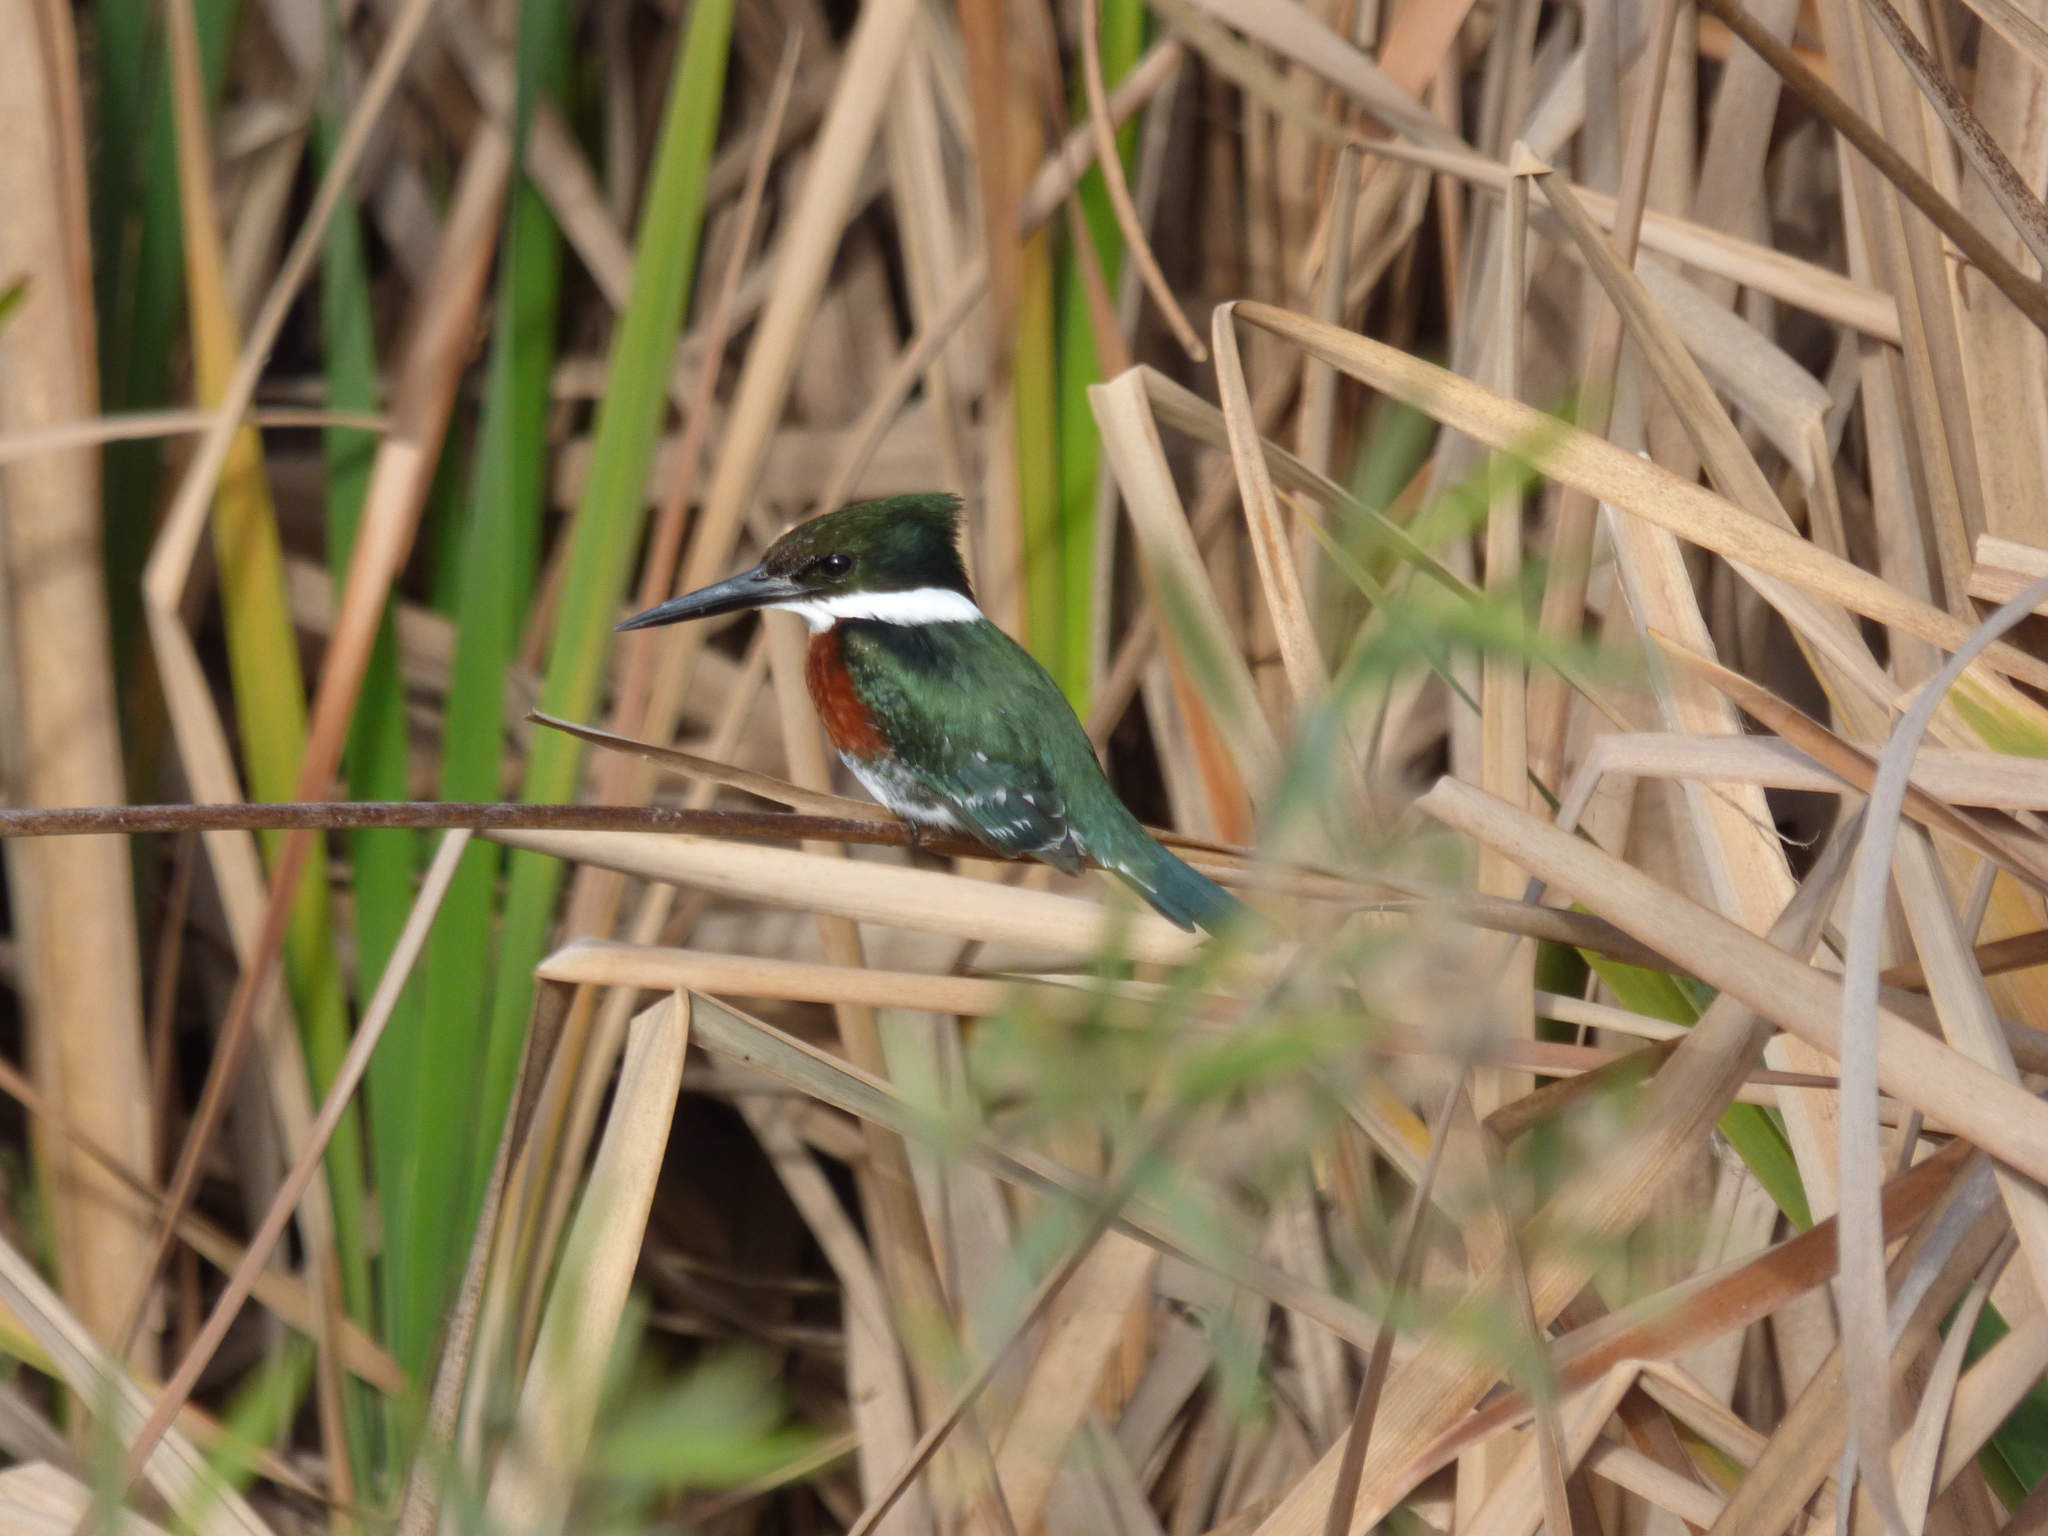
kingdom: Animalia
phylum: Chordata
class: Aves
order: Coraciiformes
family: Alcedinidae
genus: Chloroceryle
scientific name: Chloroceryle americana
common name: Green kingfisher
